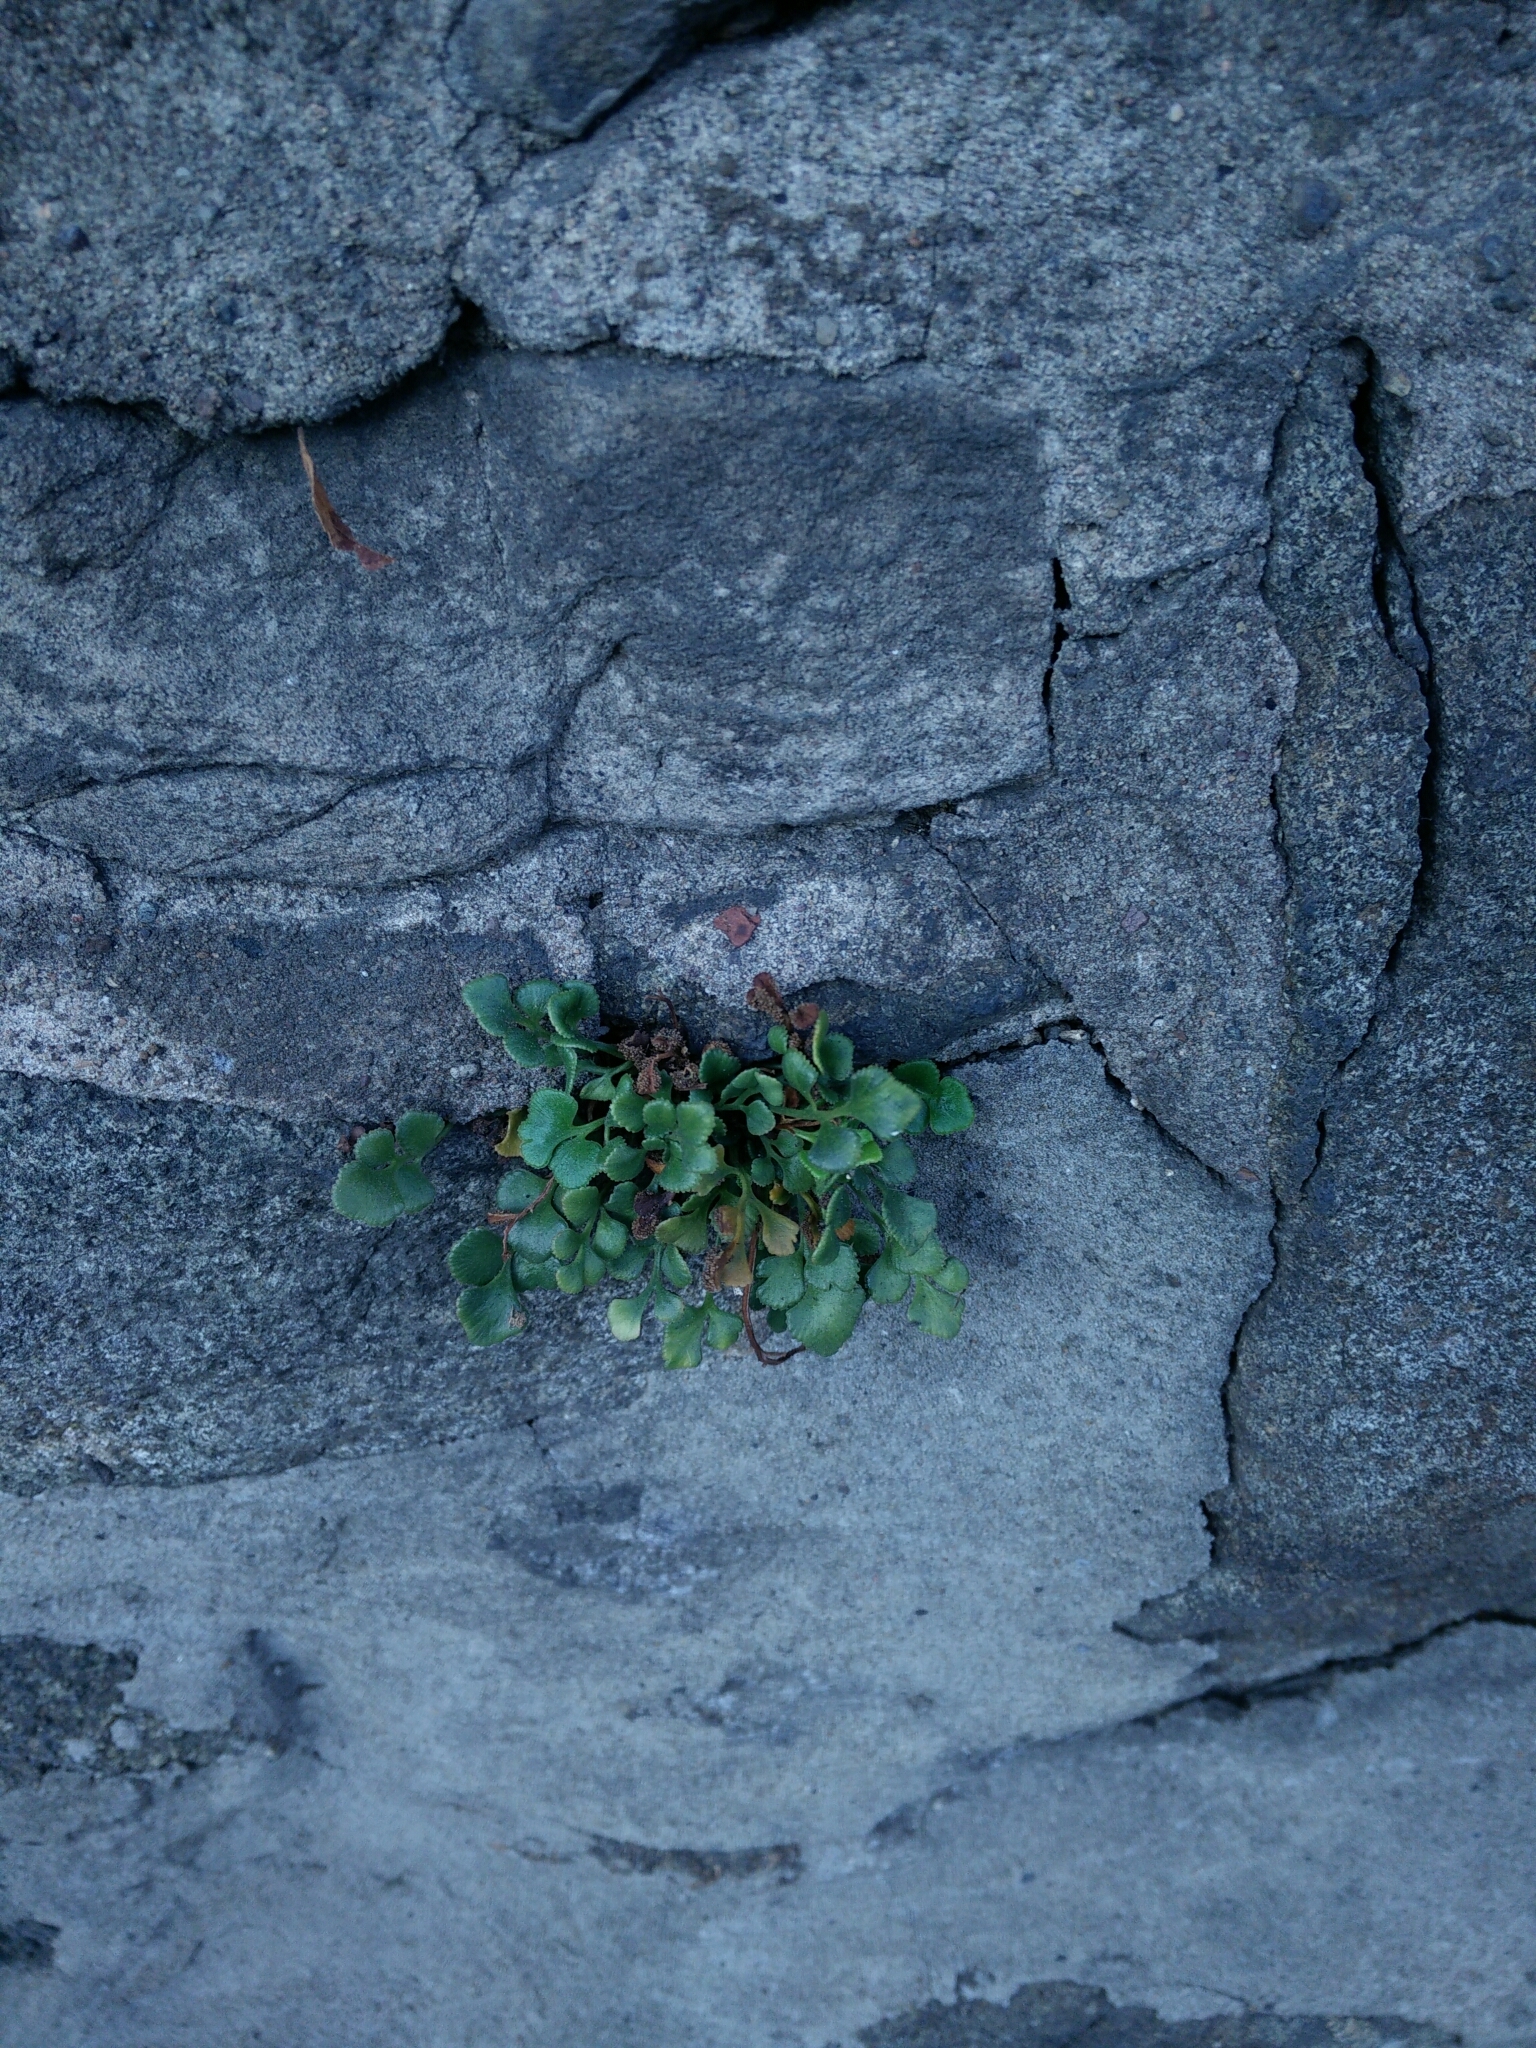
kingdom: Plantae
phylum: Tracheophyta
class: Polypodiopsida
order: Polypodiales
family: Aspleniaceae
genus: Asplenium
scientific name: Asplenium ruta-muraria
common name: Wall-rue
